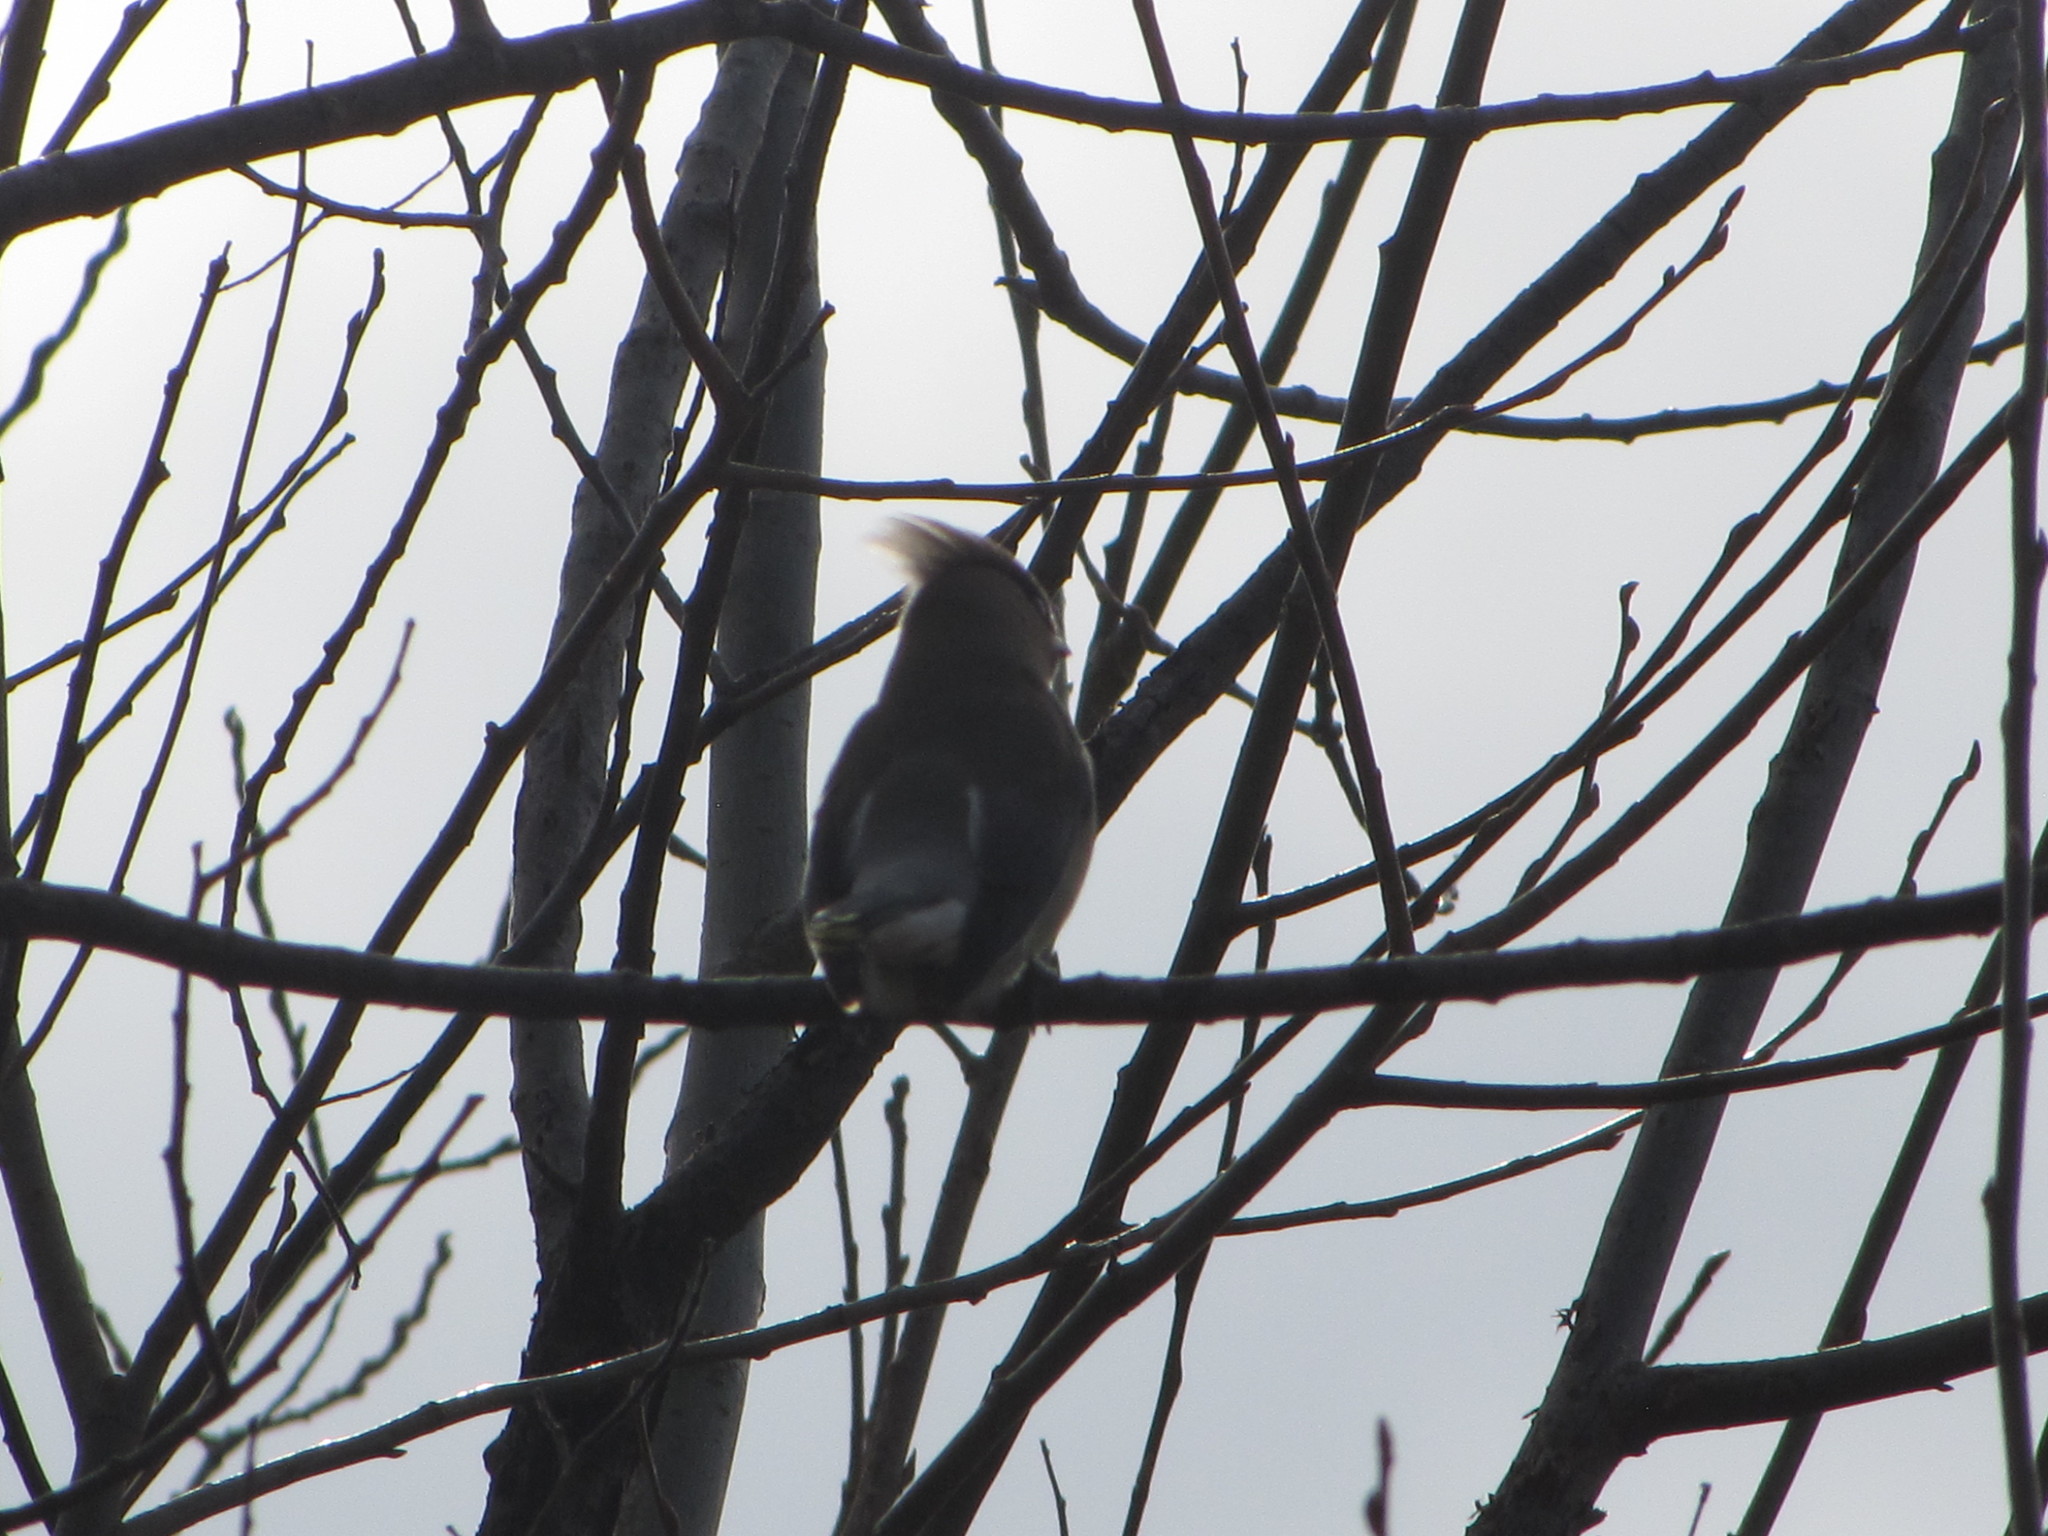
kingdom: Animalia
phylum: Chordata
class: Aves
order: Passeriformes
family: Bombycillidae
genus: Bombycilla
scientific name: Bombycilla cedrorum
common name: Cedar waxwing
